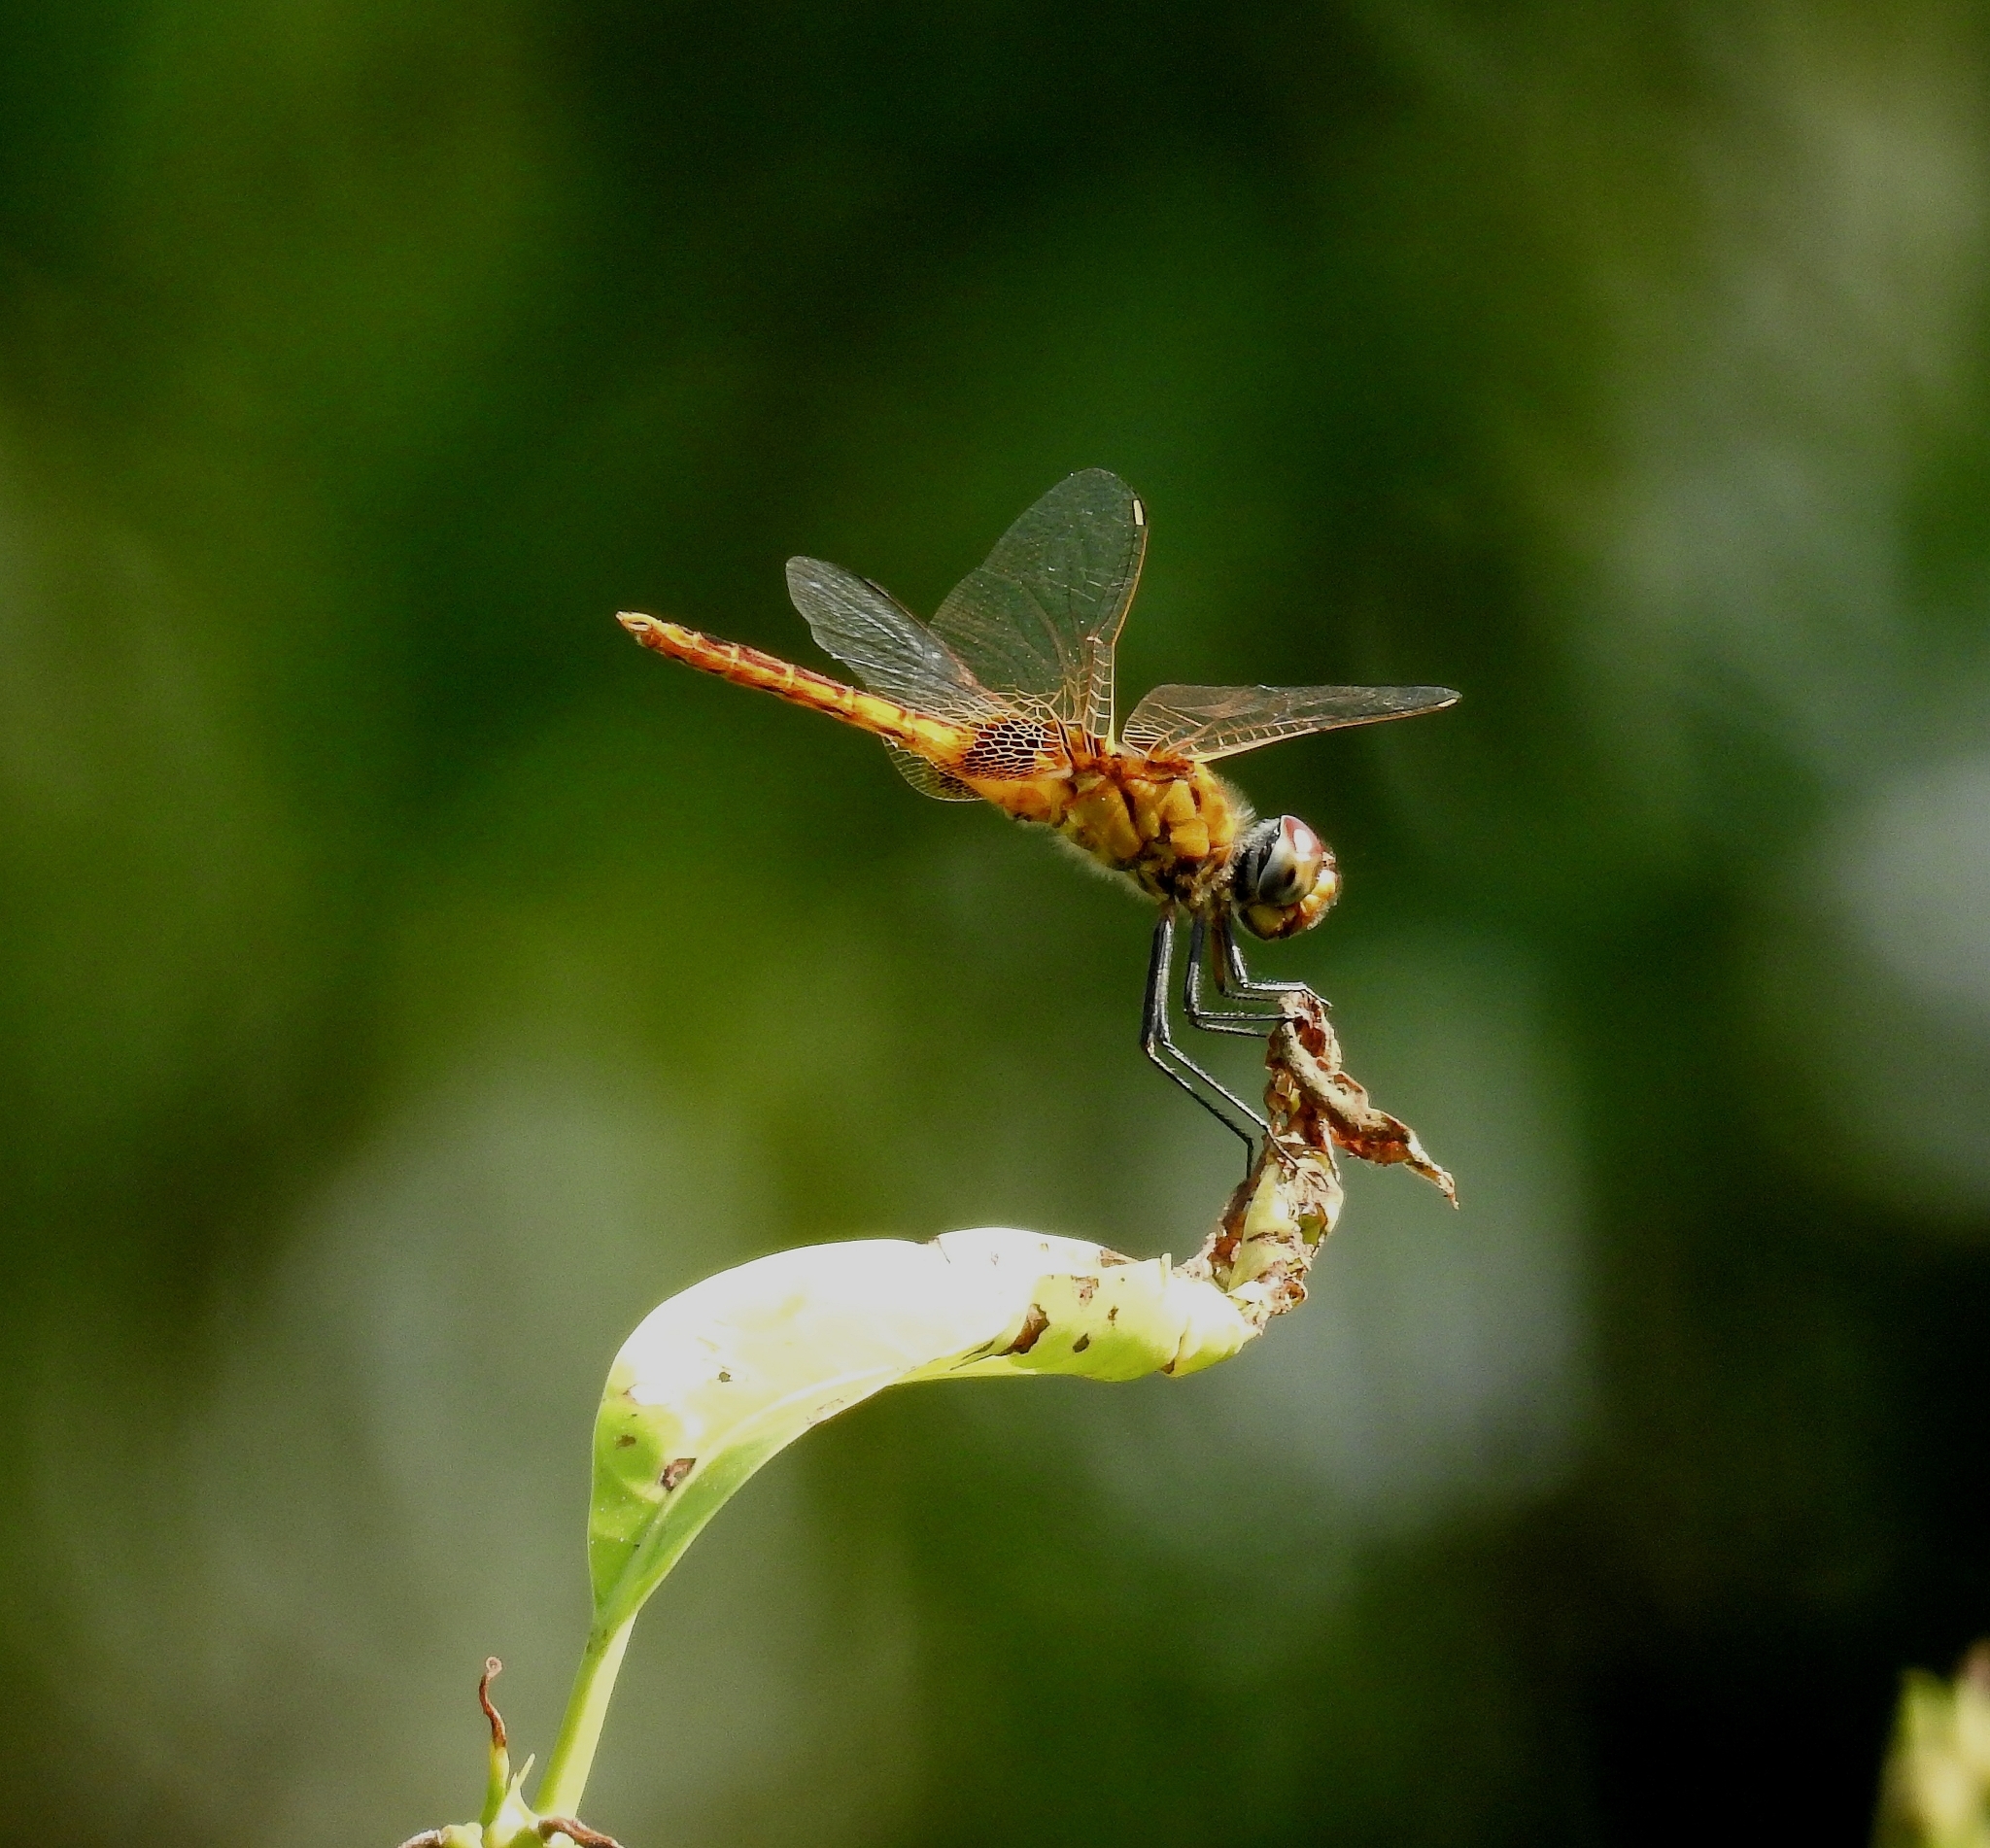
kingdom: Animalia
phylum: Arthropoda
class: Insecta
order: Odonata
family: Libellulidae
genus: Urothemis
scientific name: Urothemis signata
